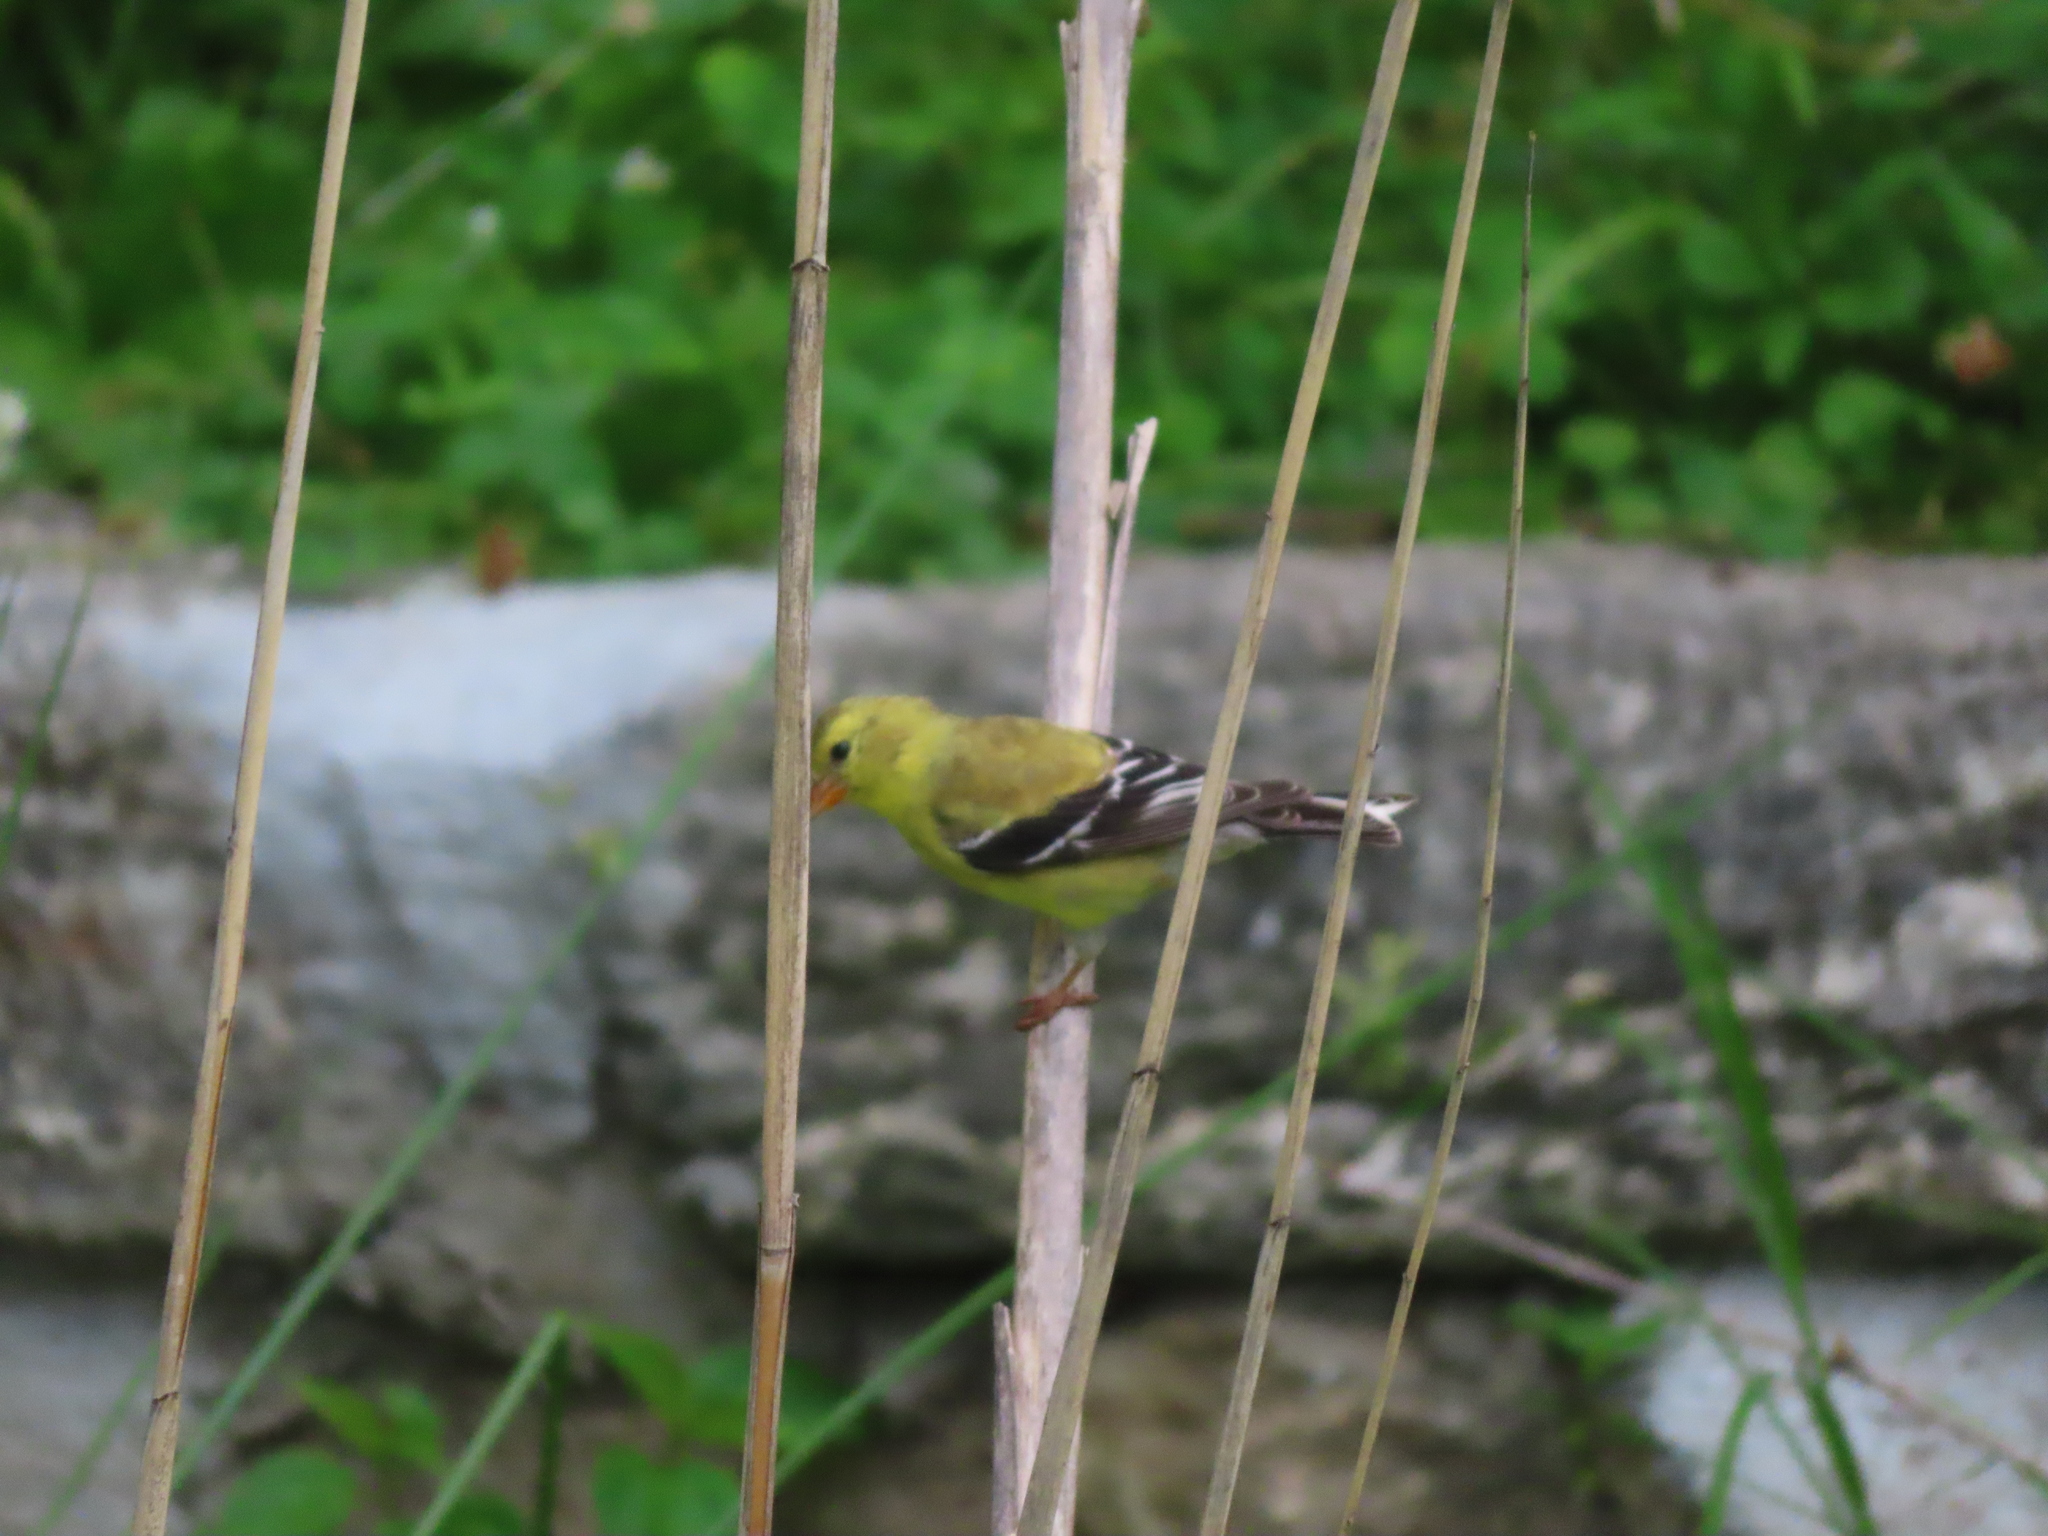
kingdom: Animalia
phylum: Chordata
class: Aves
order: Passeriformes
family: Fringillidae
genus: Spinus
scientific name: Spinus tristis
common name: American goldfinch
